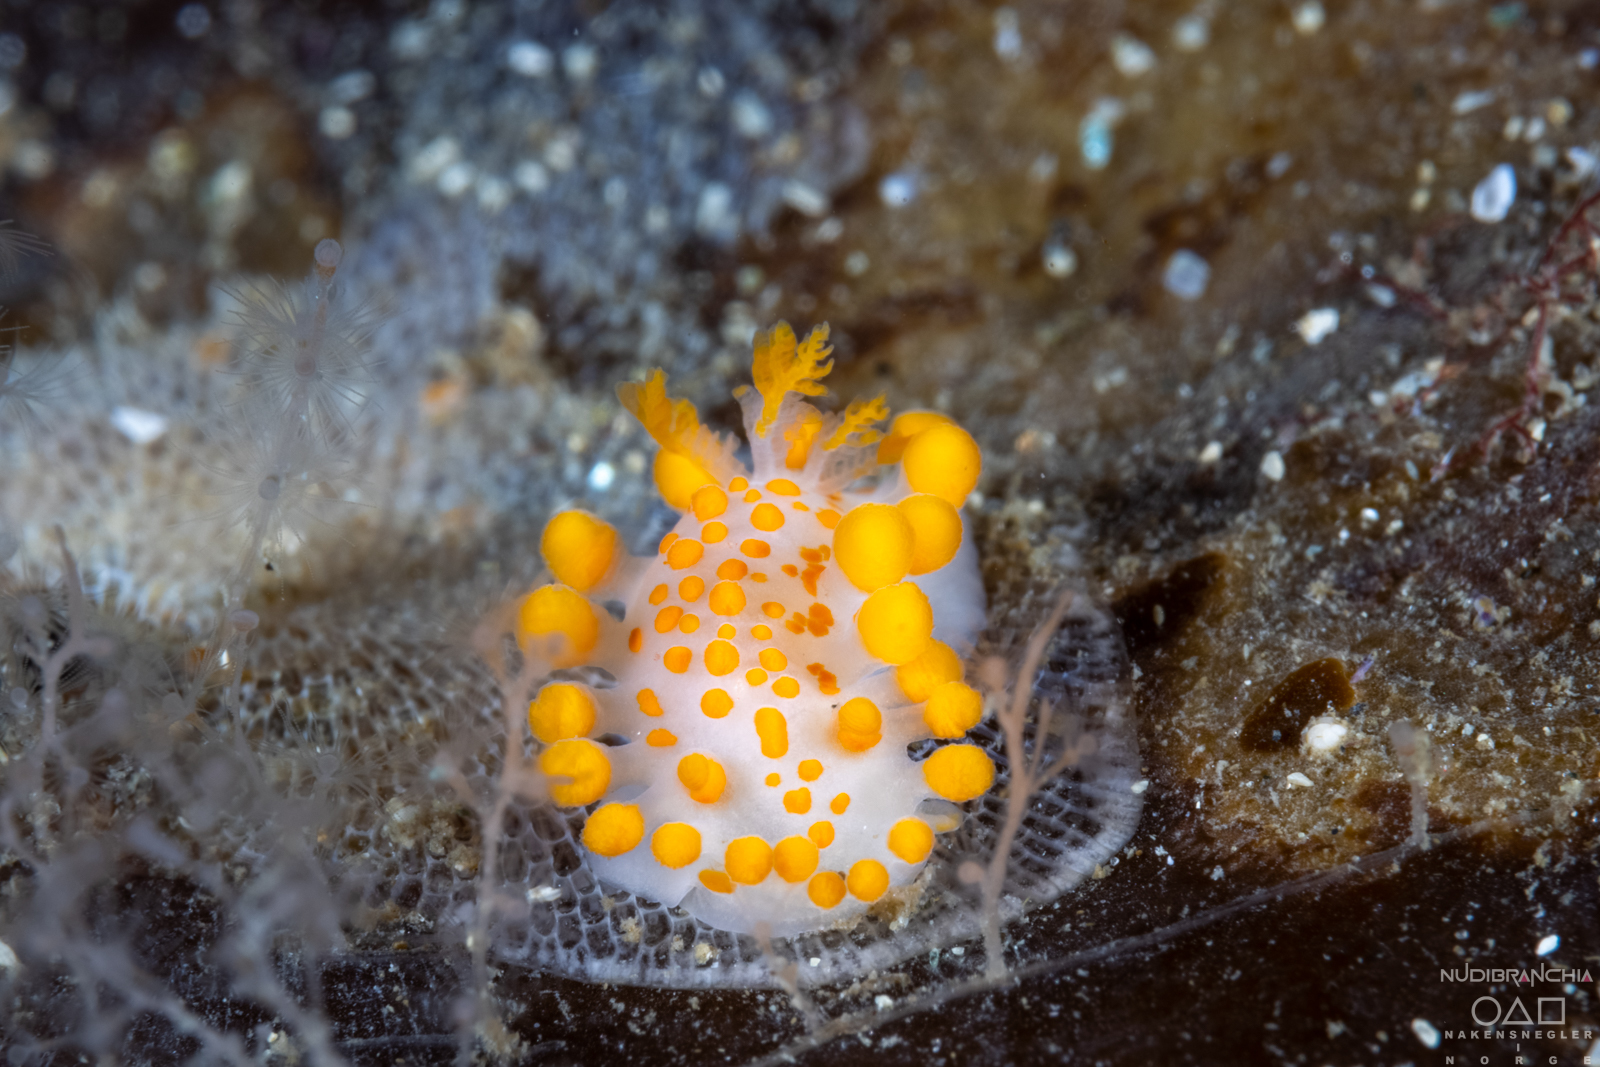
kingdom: Animalia
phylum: Mollusca
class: Gastropoda
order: Nudibranchia
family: Polyceridae
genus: Limacia
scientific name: Limacia clavigera
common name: Orange-clubbed sea slug
